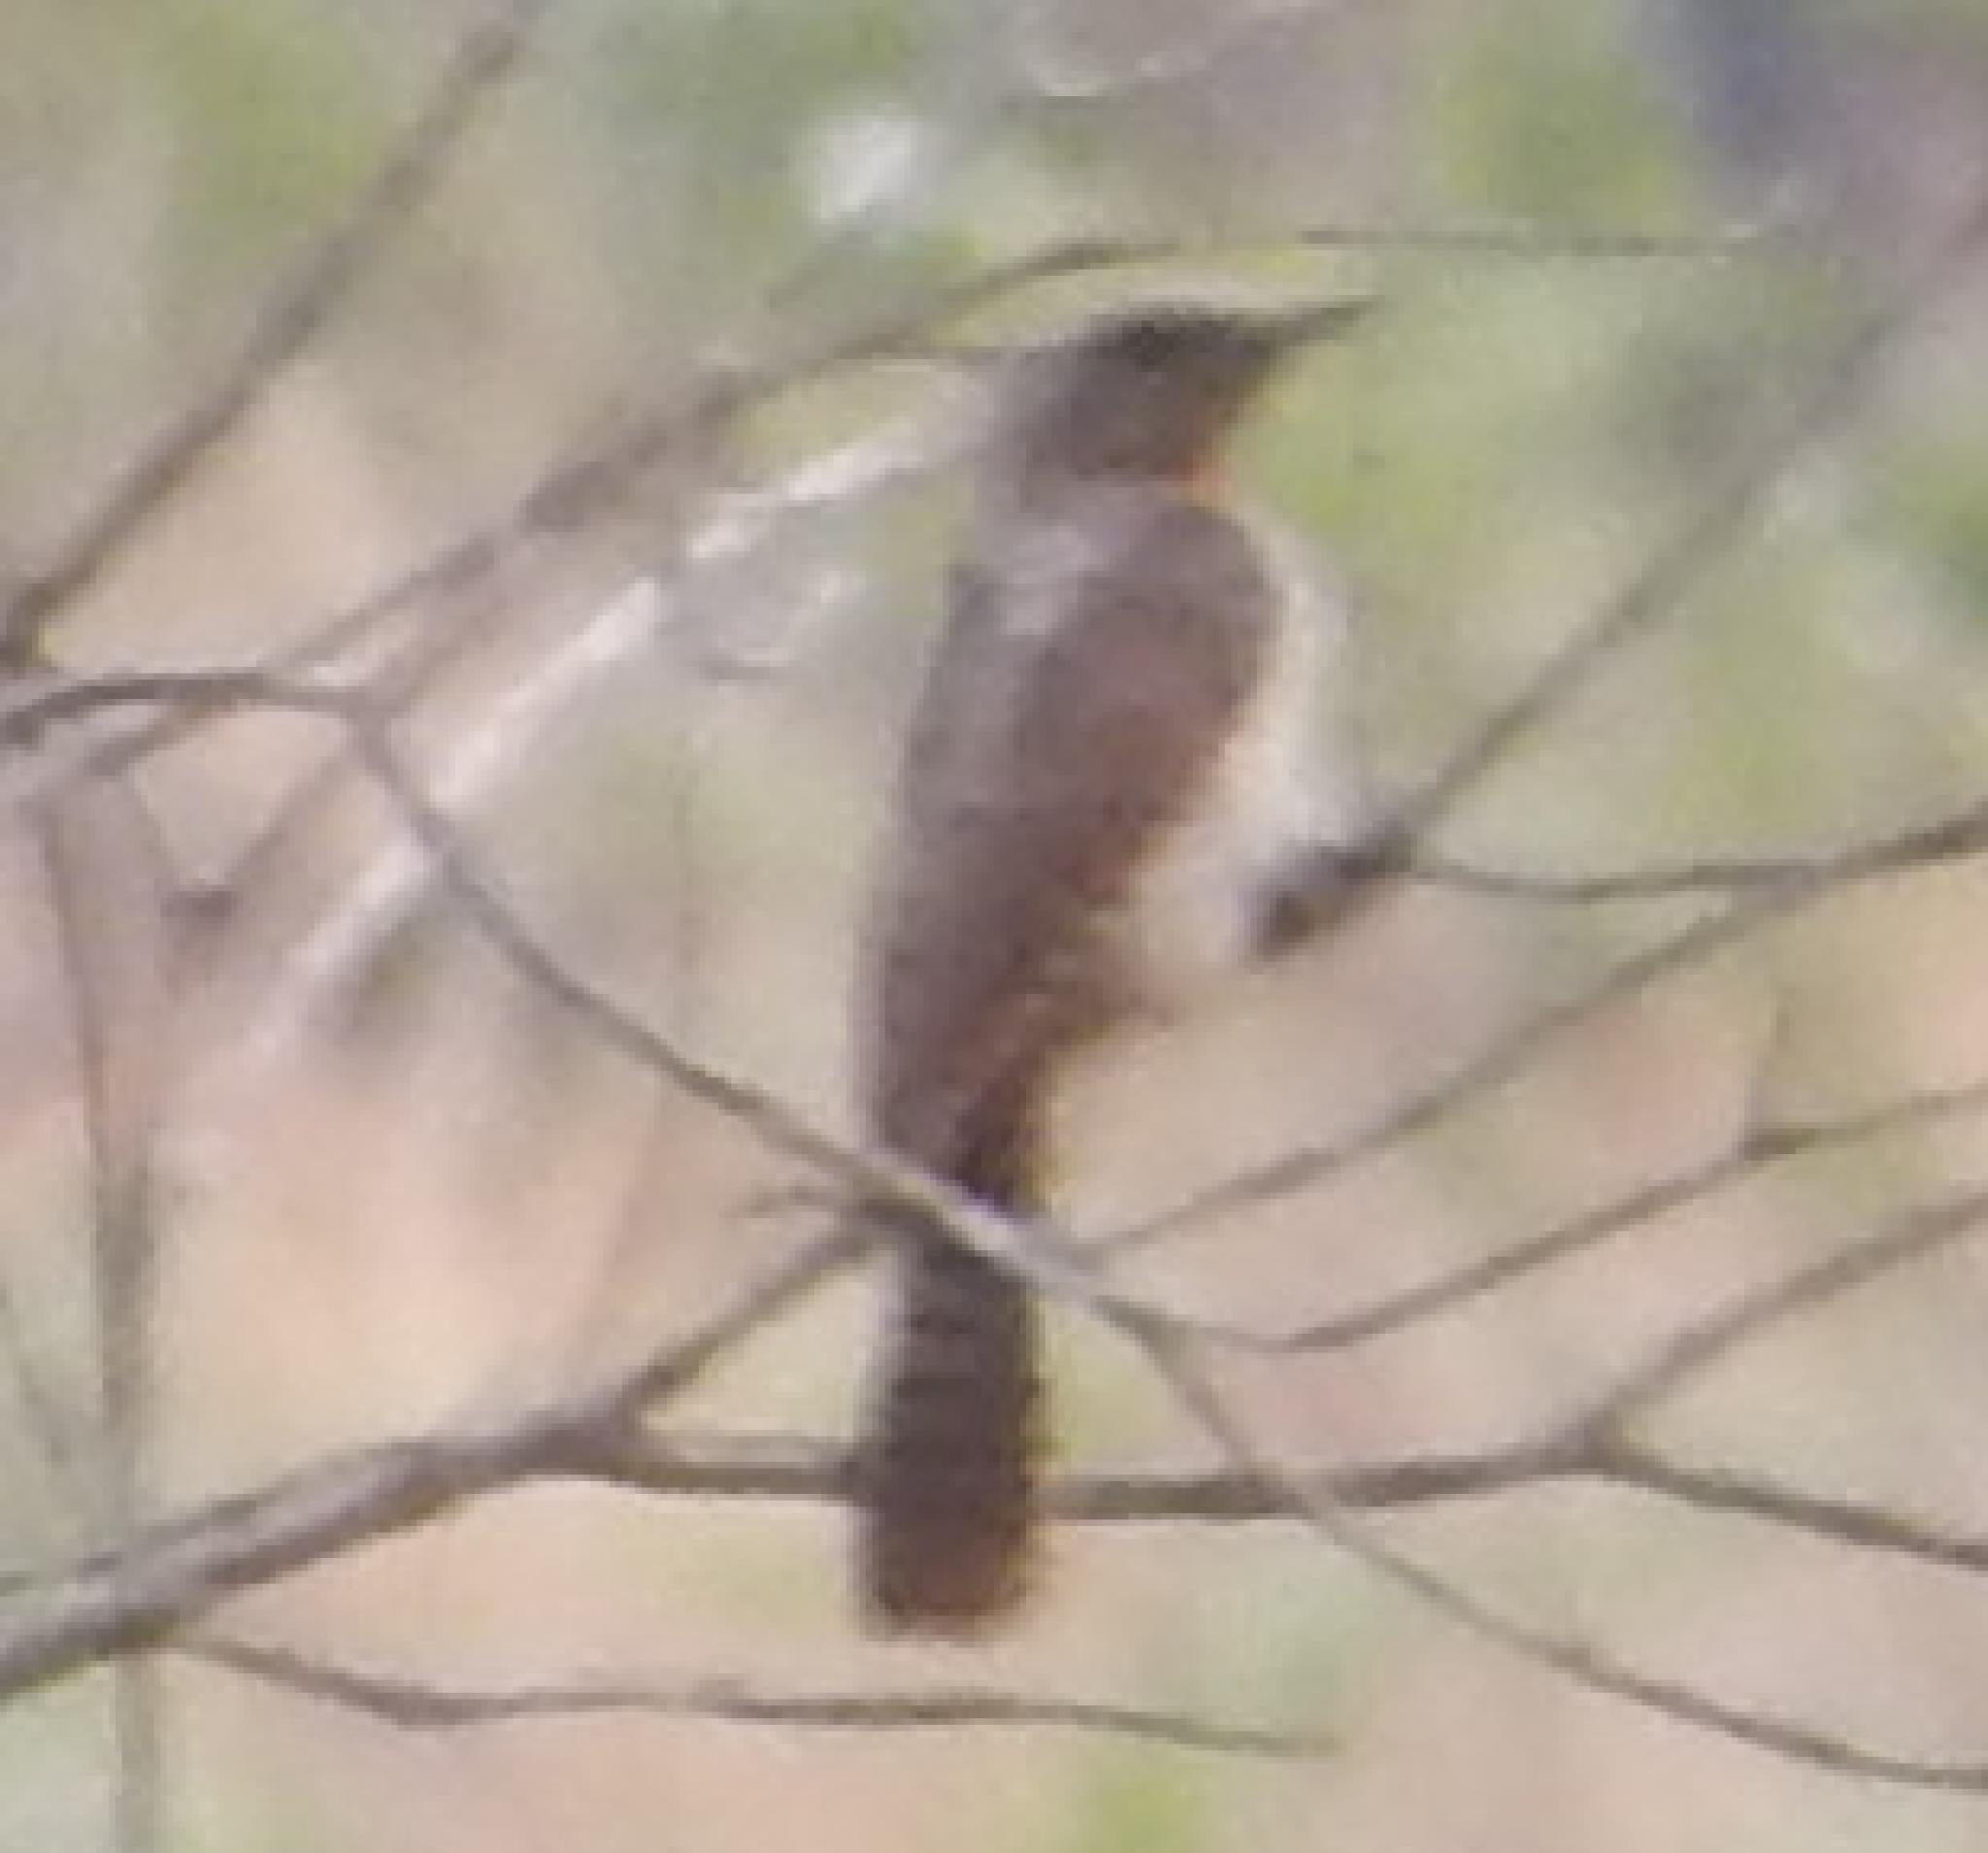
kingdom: Animalia
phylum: Chordata
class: Aves
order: Piciformes
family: Picidae
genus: Jynx
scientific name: Jynx ruficollis
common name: Red-throated wryneck
